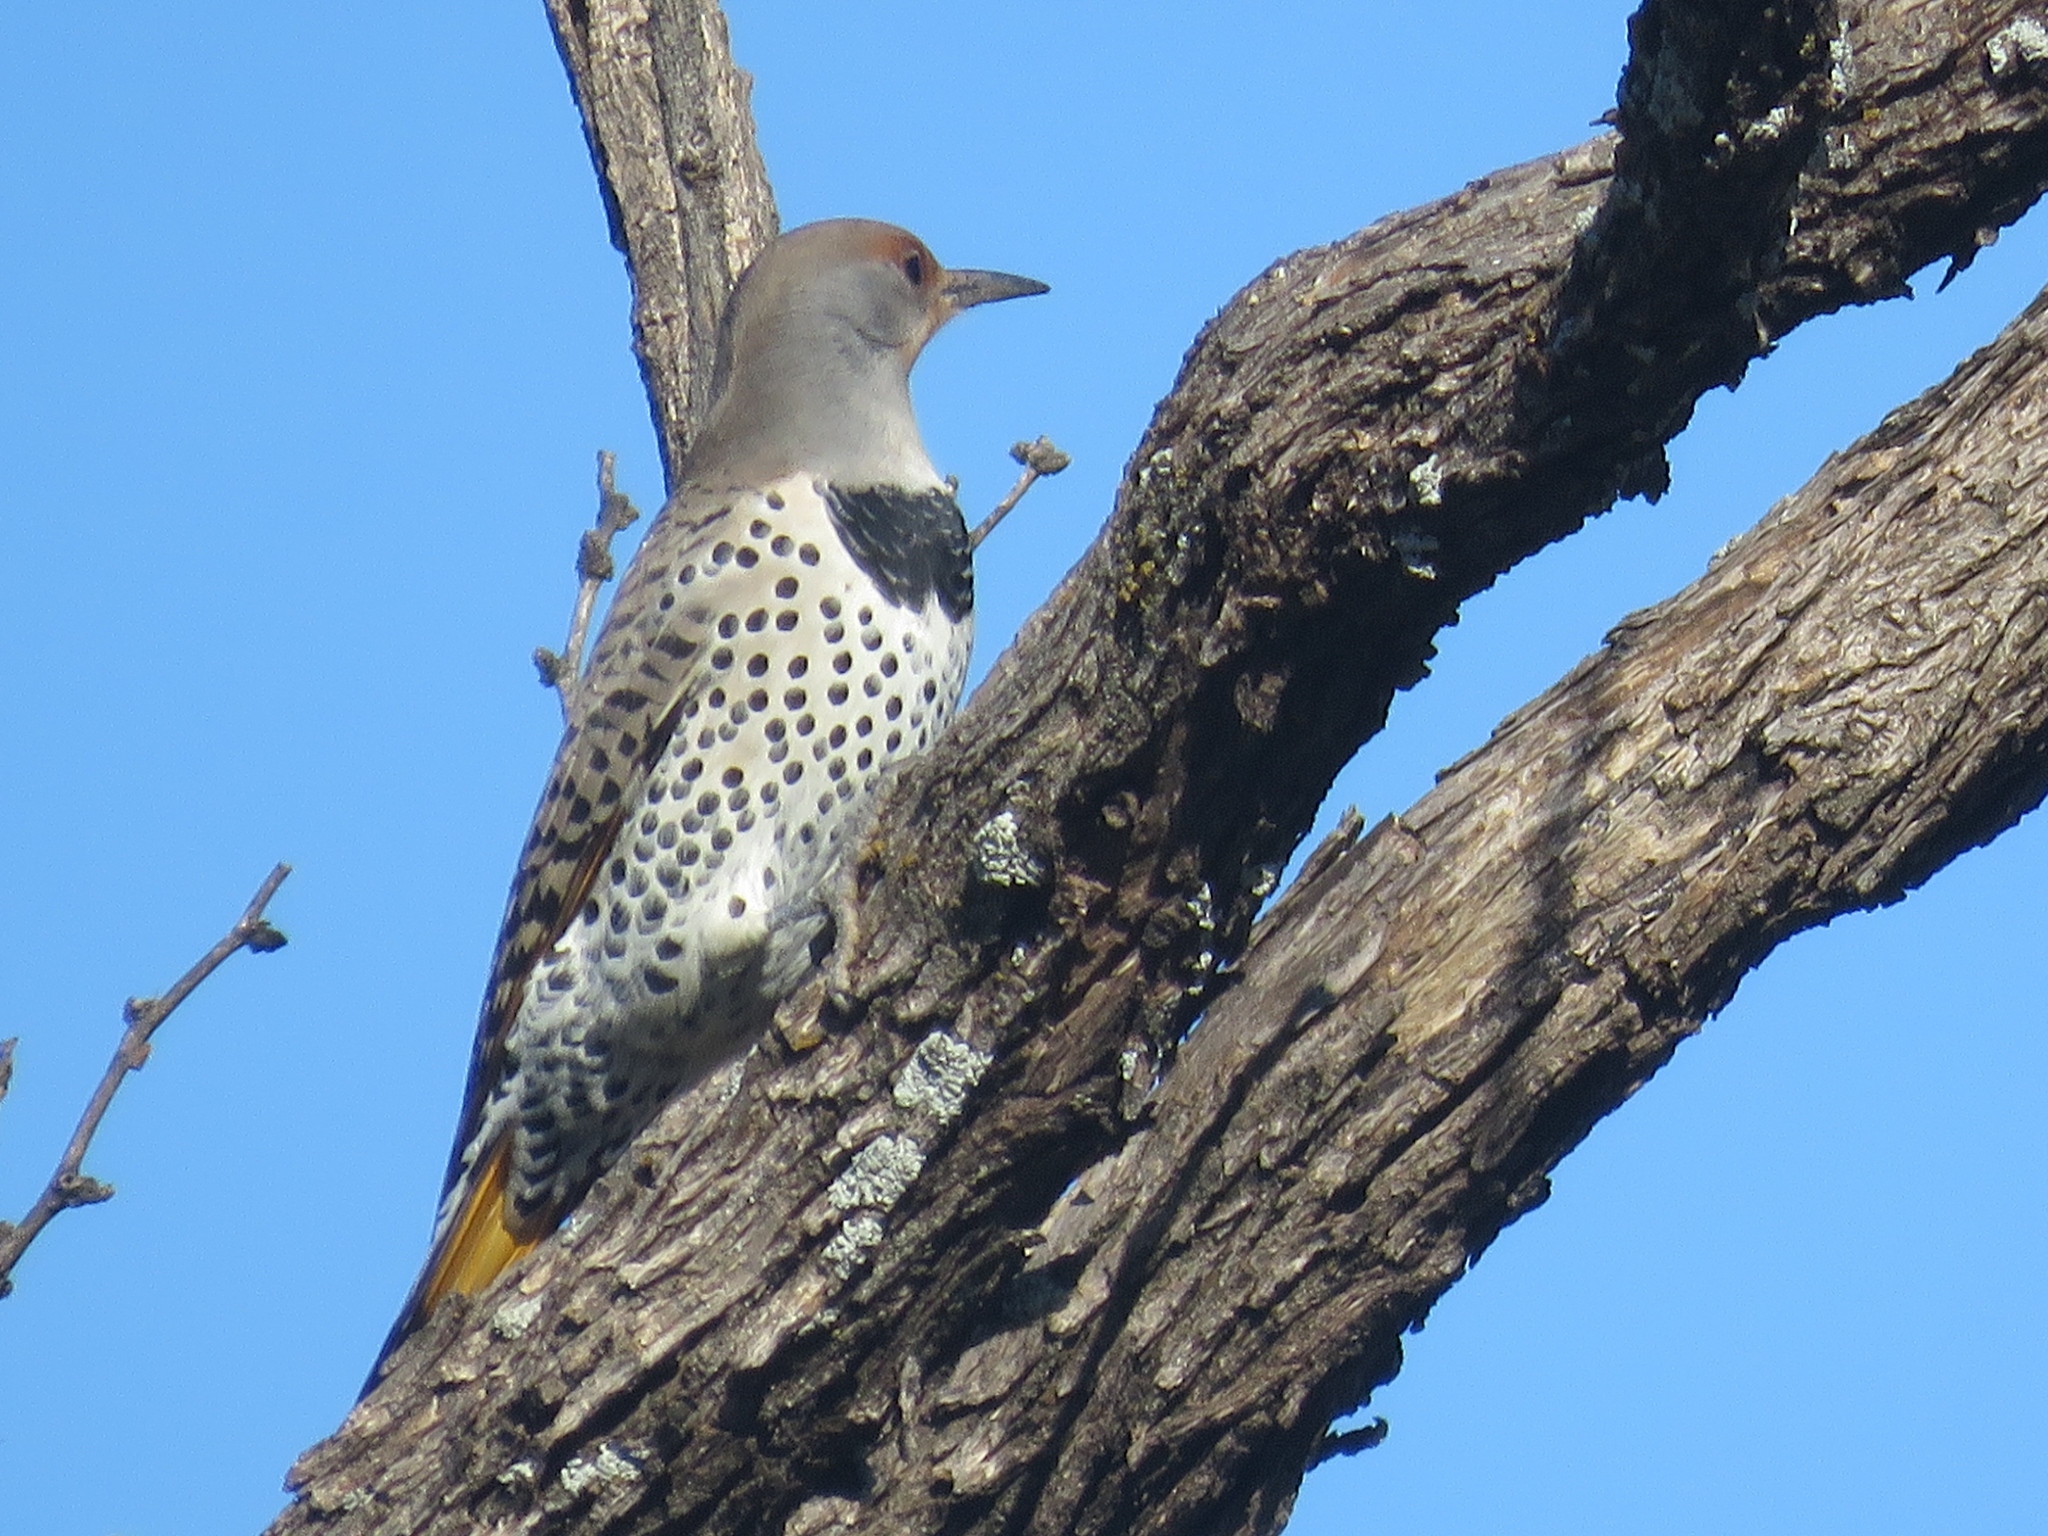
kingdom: Animalia
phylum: Chordata
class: Aves
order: Piciformes
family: Picidae
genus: Colaptes
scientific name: Colaptes
